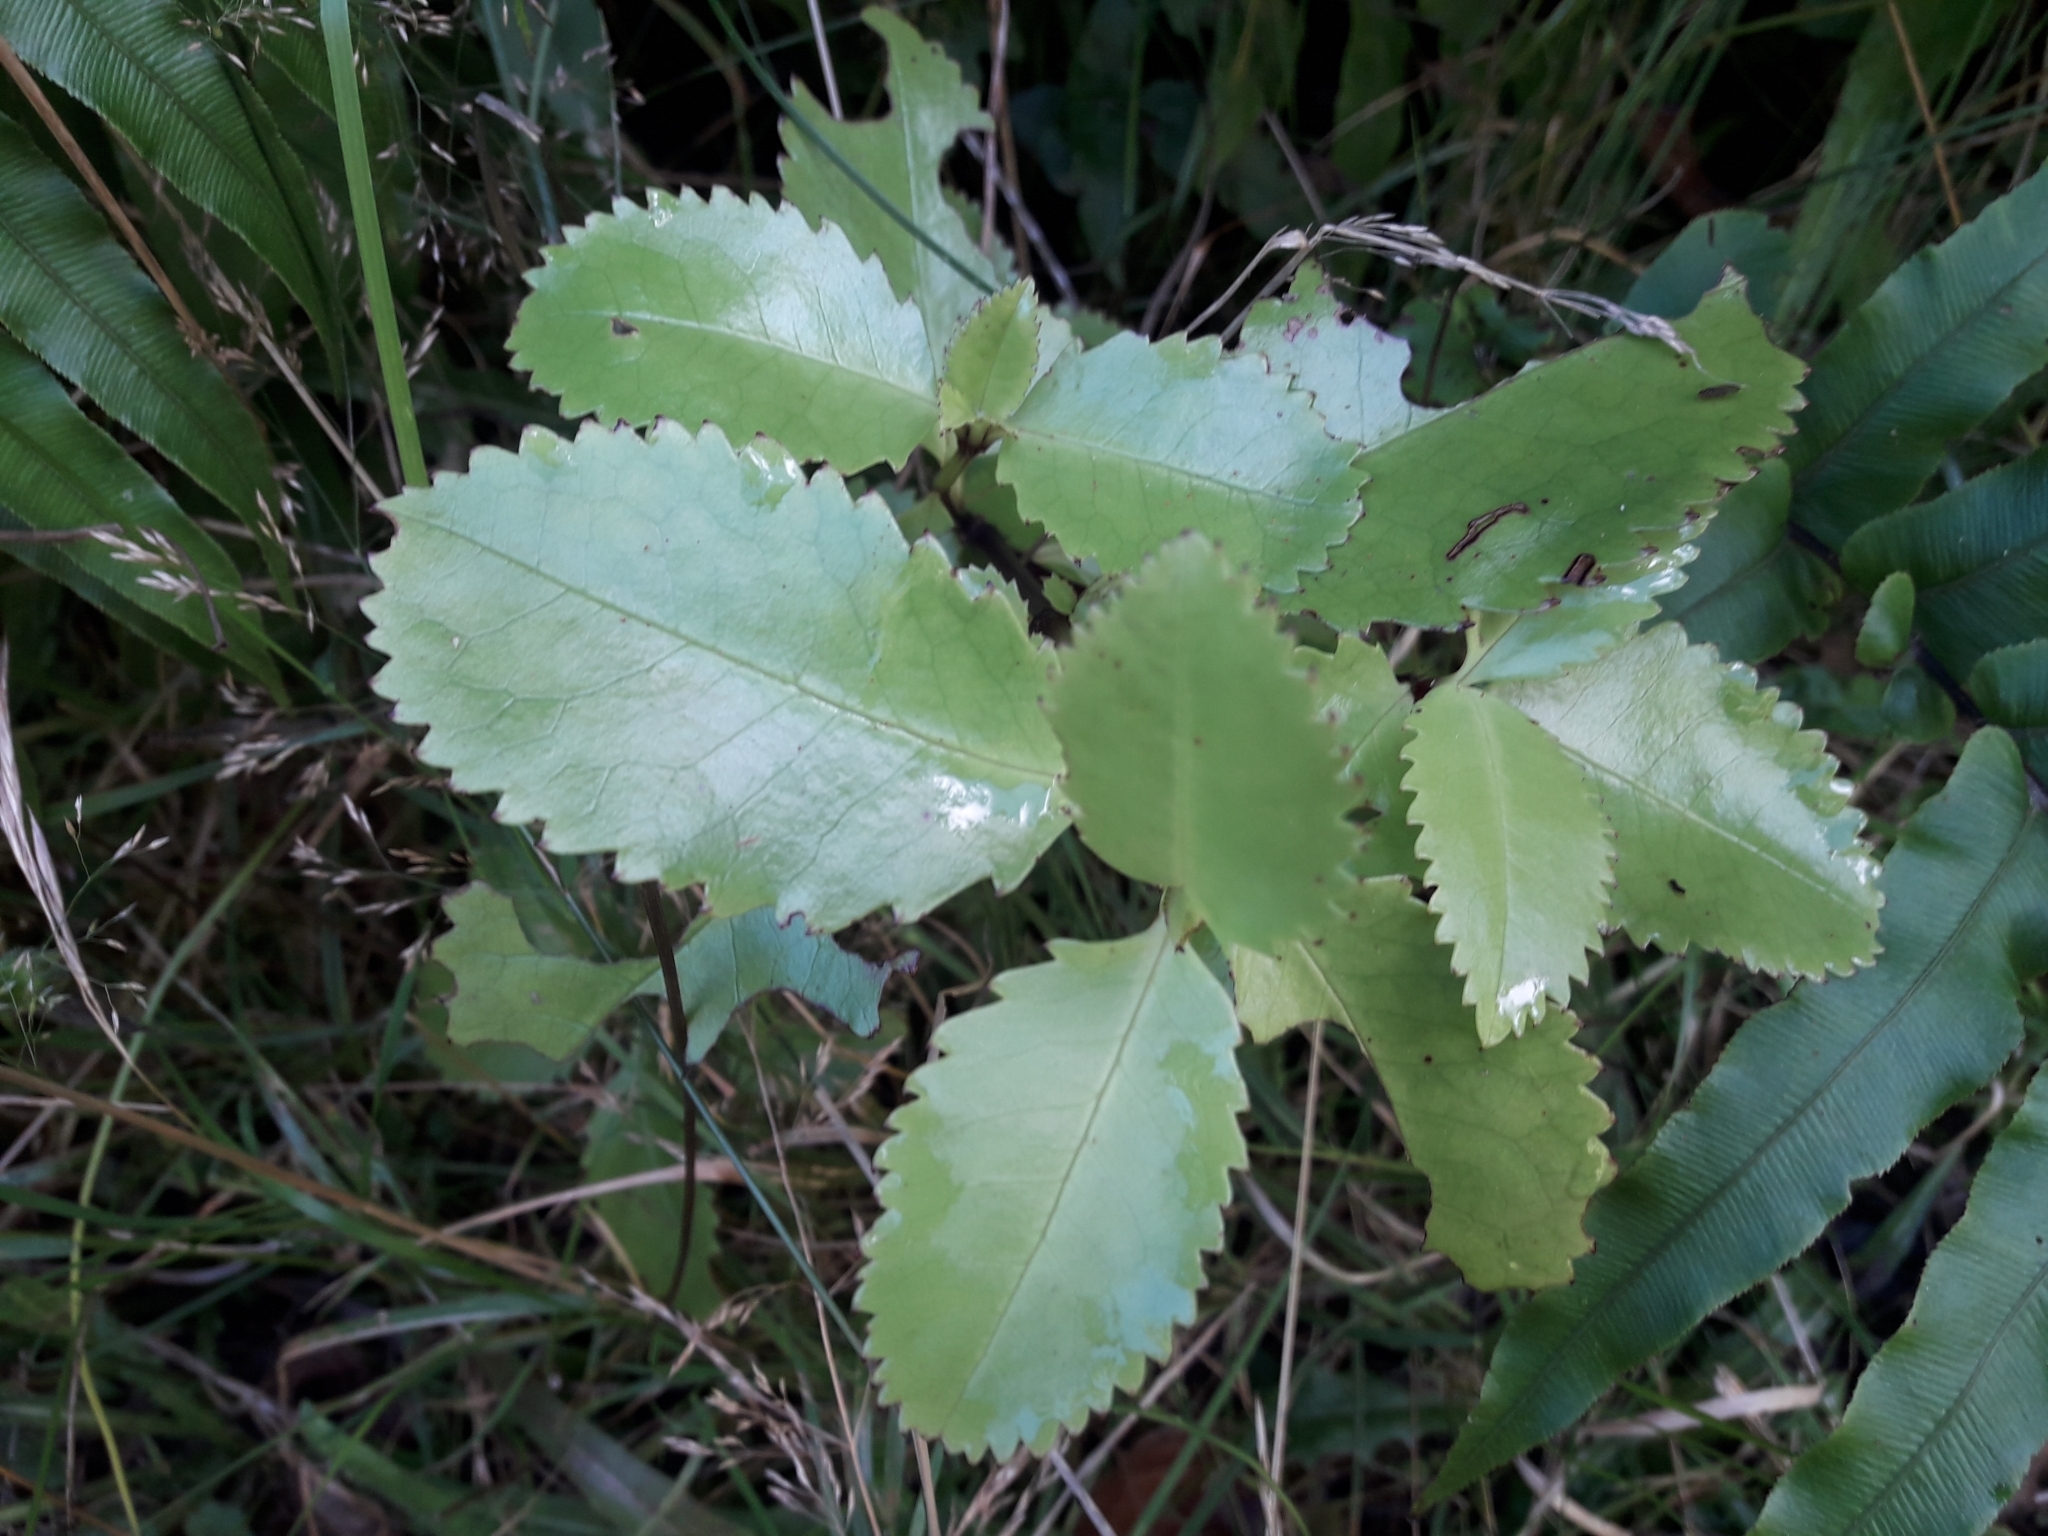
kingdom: Plantae
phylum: Tracheophyta
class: Magnoliopsida
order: Chloranthales
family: Chloranthaceae
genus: Ascarina
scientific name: Ascarina lucida
